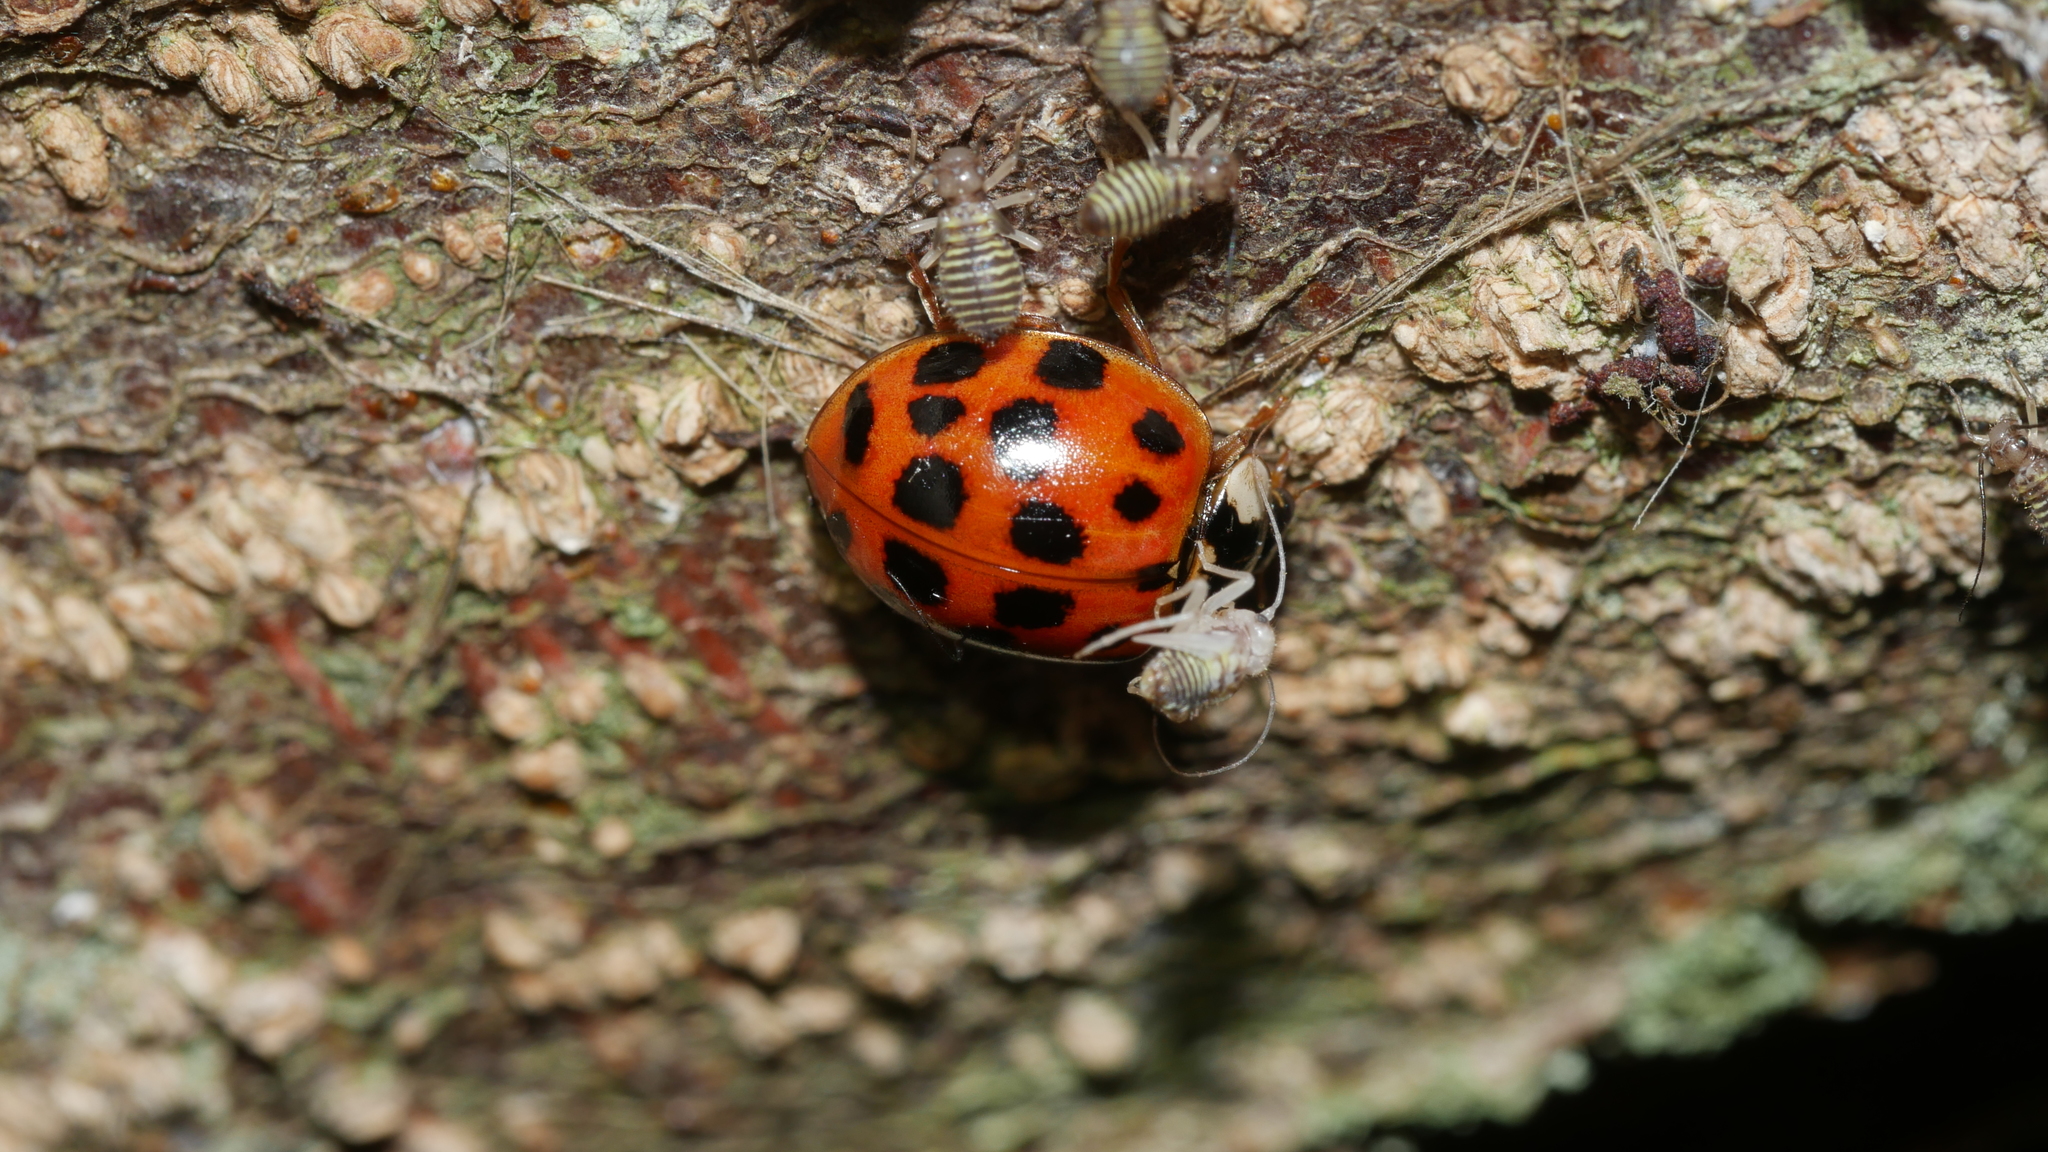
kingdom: Animalia
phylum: Arthropoda
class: Insecta
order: Coleoptera
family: Coccinellidae
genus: Harmonia
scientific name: Harmonia axyridis
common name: Harlequin ladybird
